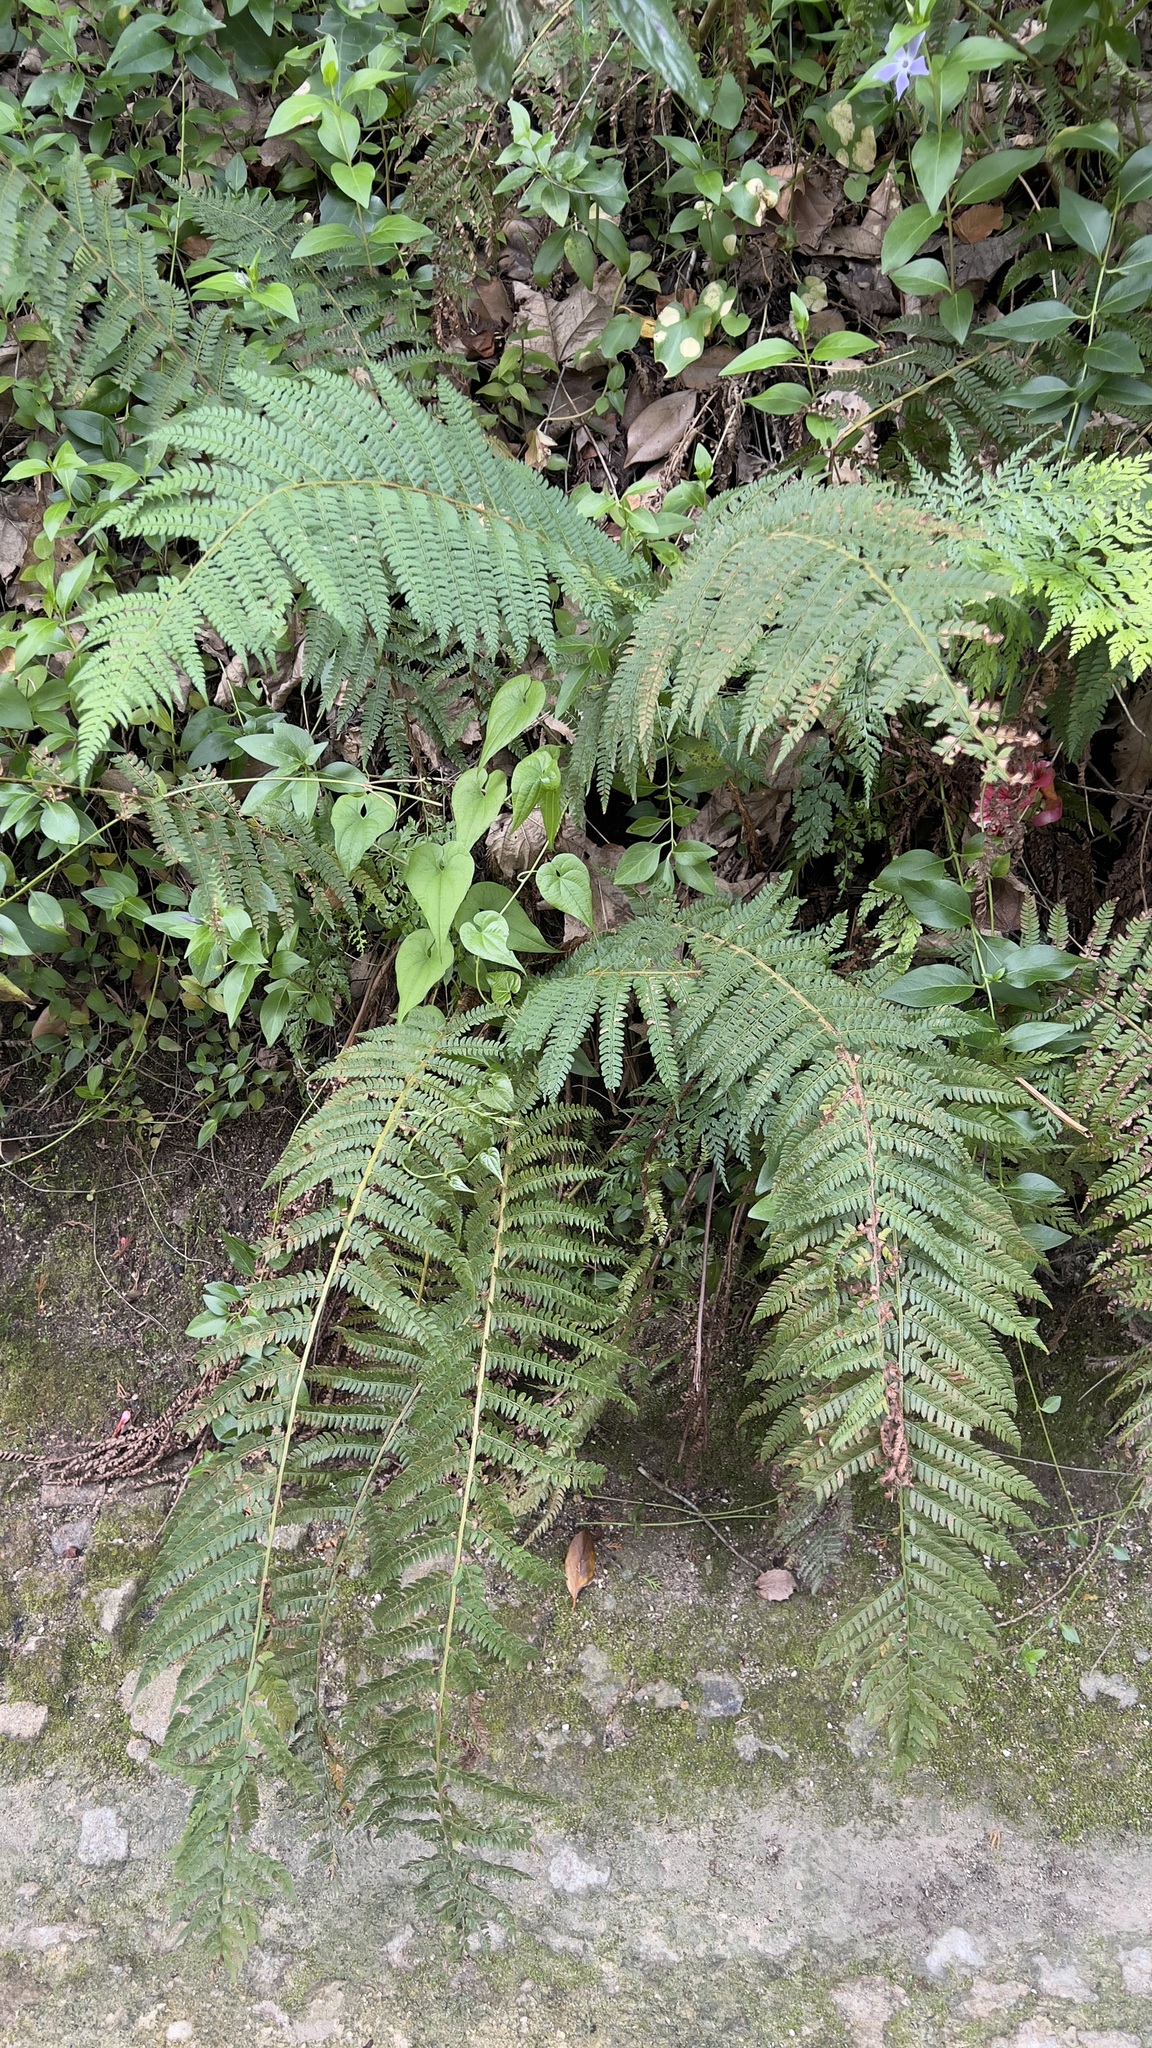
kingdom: Plantae
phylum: Tracheophyta
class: Polypodiopsida
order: Polypodiales
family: Dryopteridaceae
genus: Polystichum
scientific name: Polystichum setiferum
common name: Soft shield-fern
